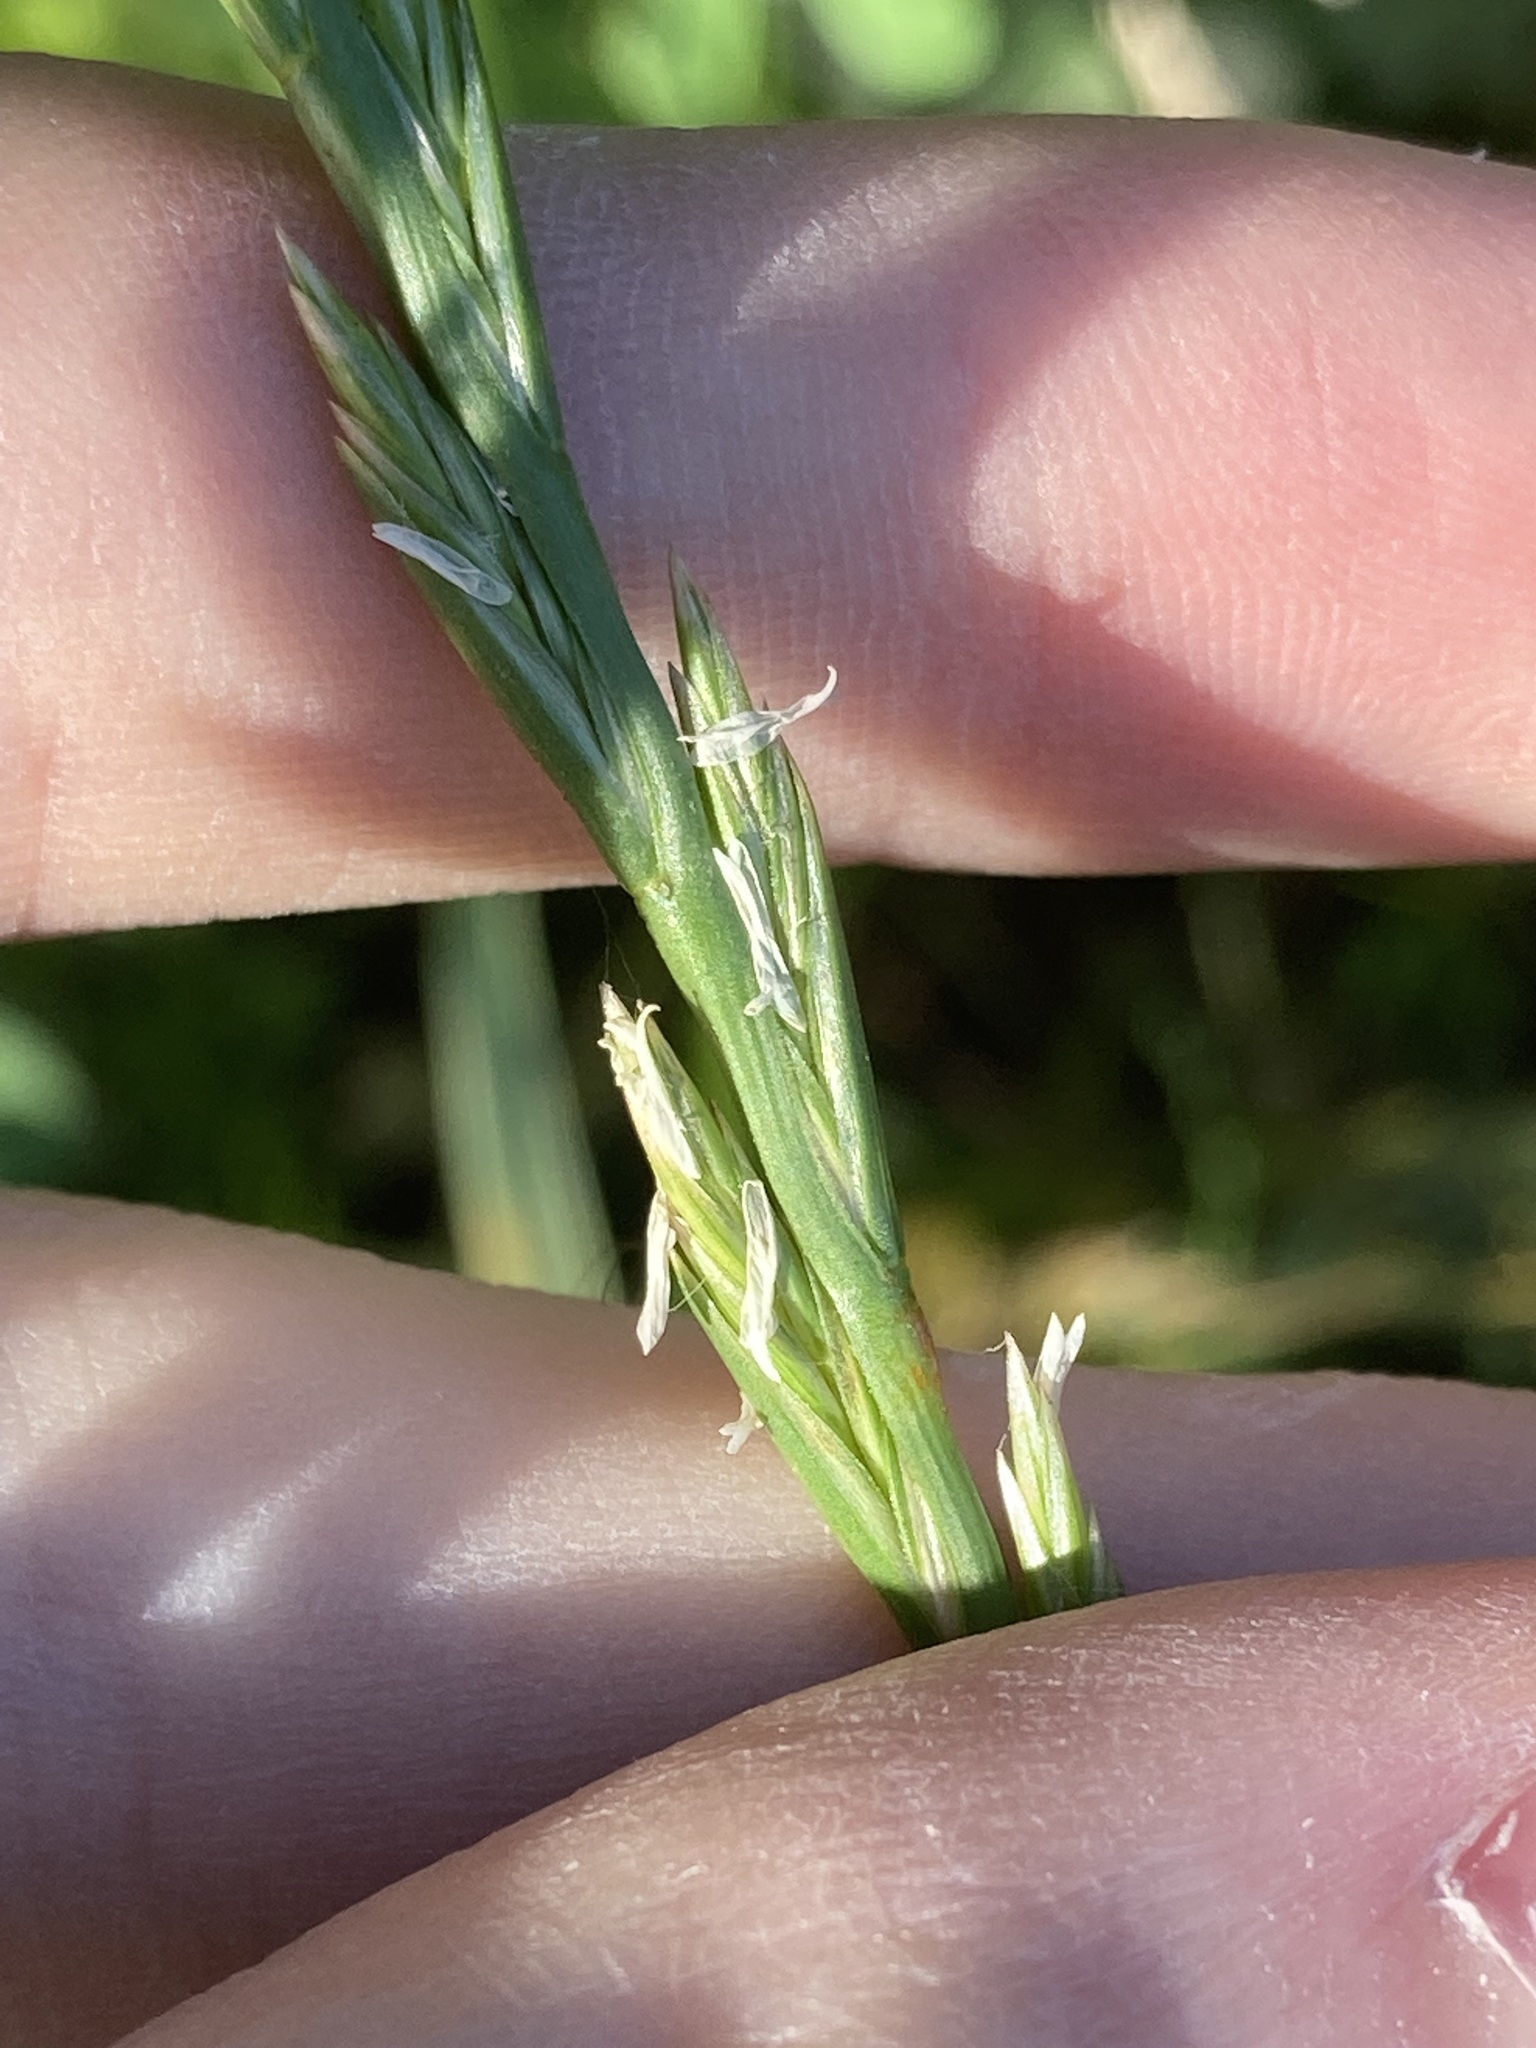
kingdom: Plantae
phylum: Tracheophyta
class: Liliopsida
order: Poales
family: Poaceae
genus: Lolium
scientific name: Lolium
